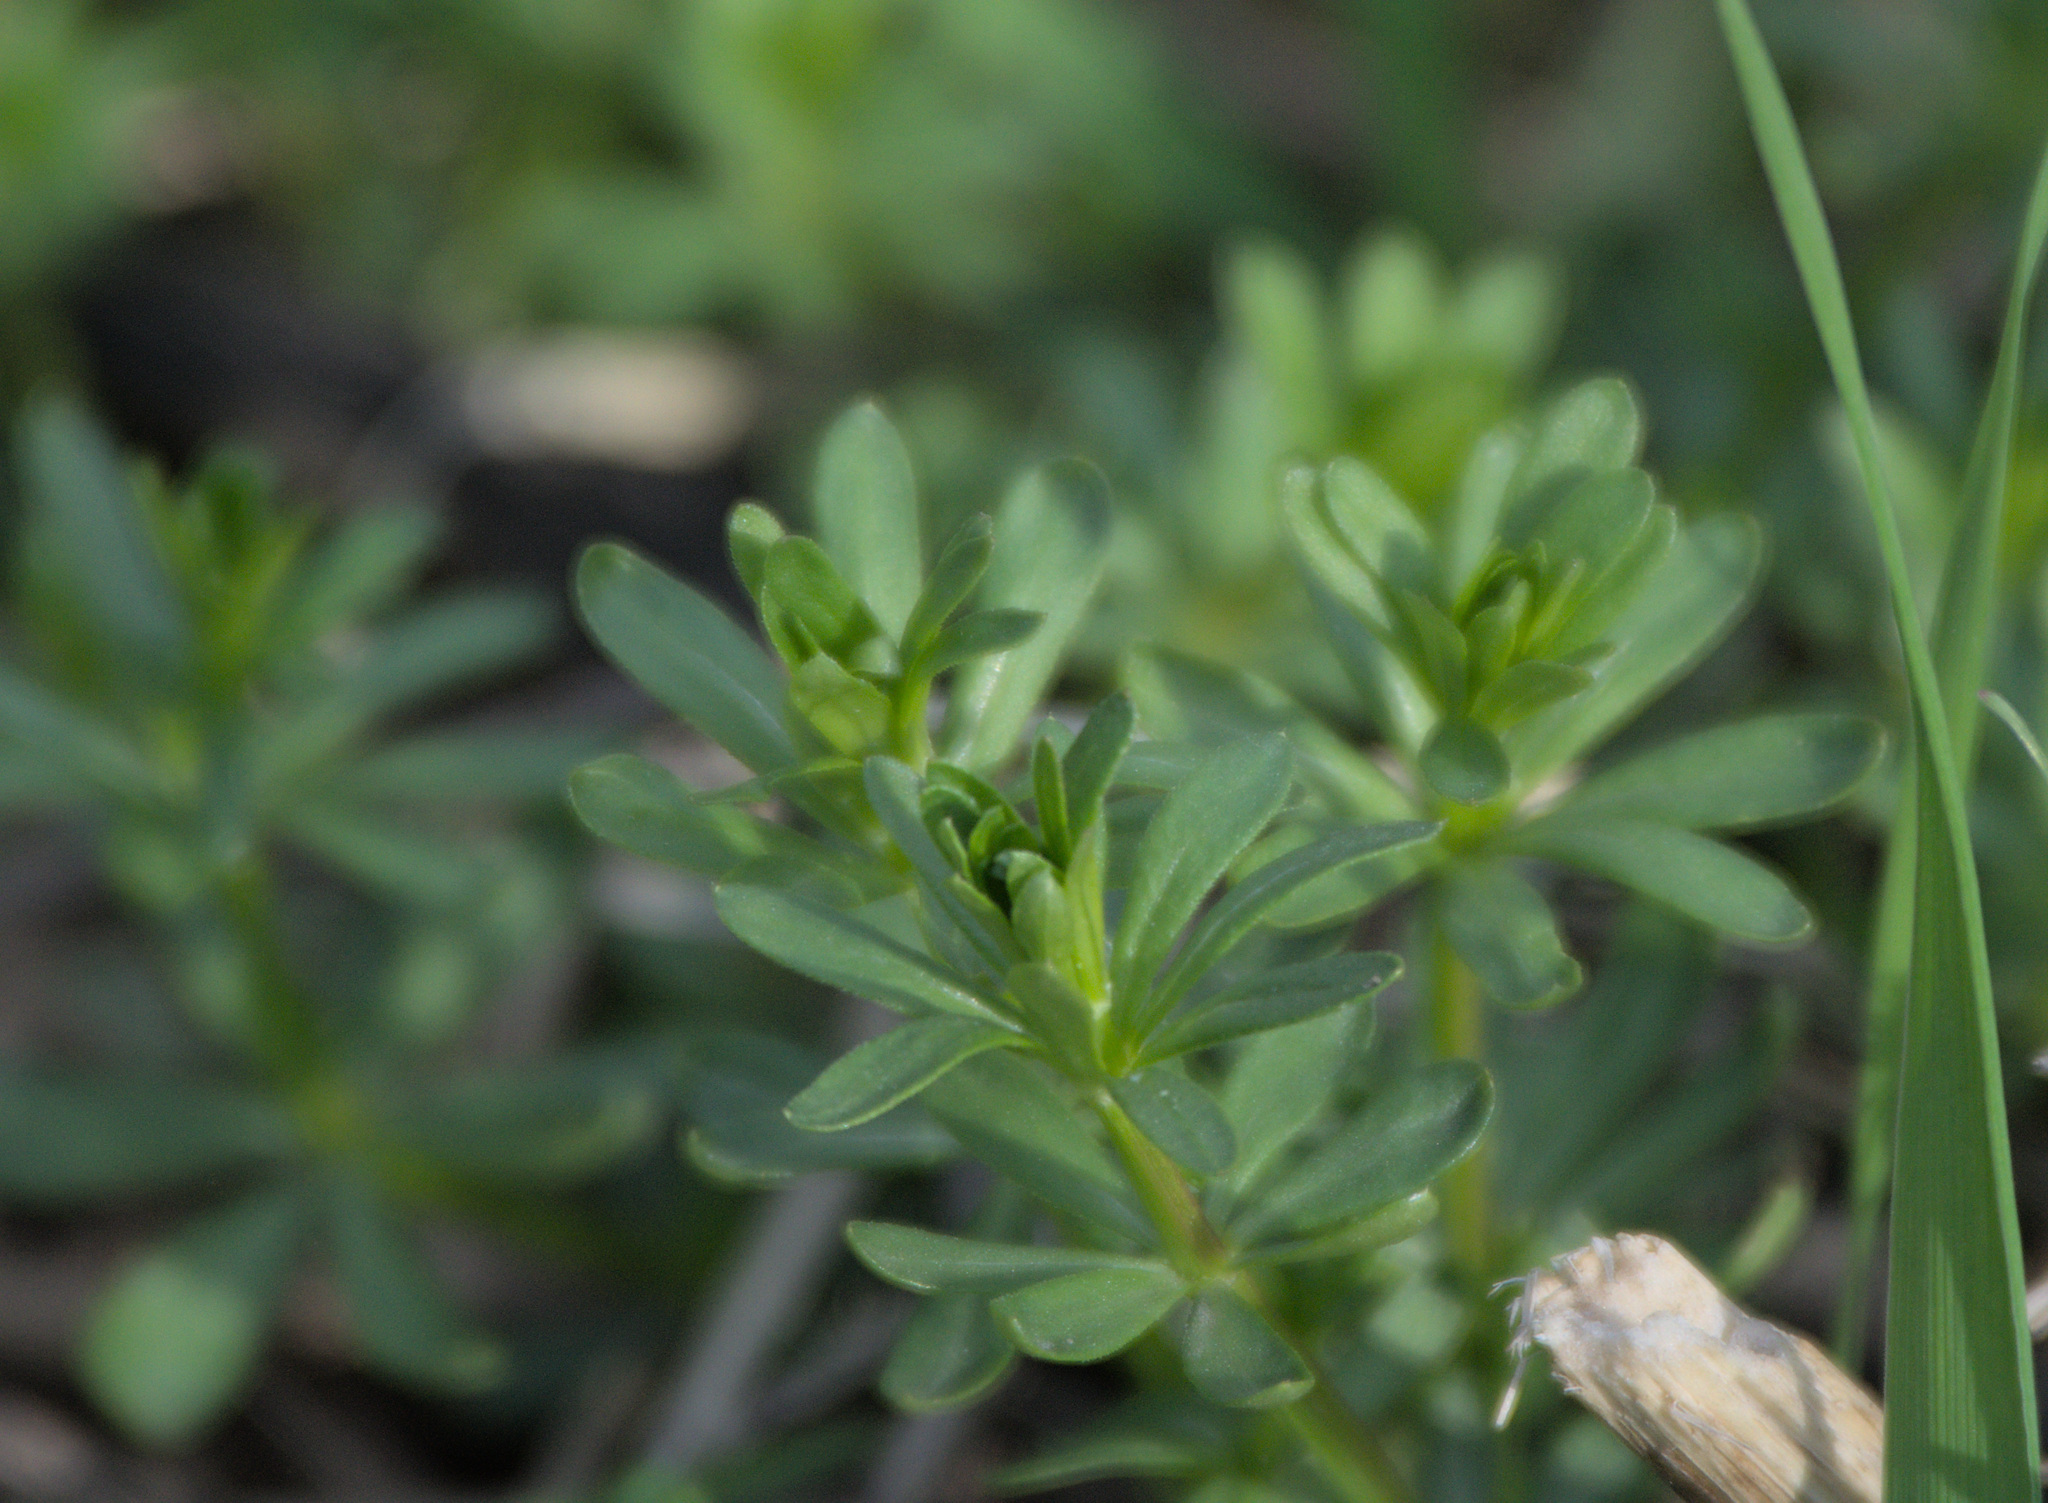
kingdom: Plantae
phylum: Tracheophyta
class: Magnoliopsida
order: Gentianales
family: Rubiaceae
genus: Galium
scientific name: Galium mollugo
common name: Hedge bedstraw
